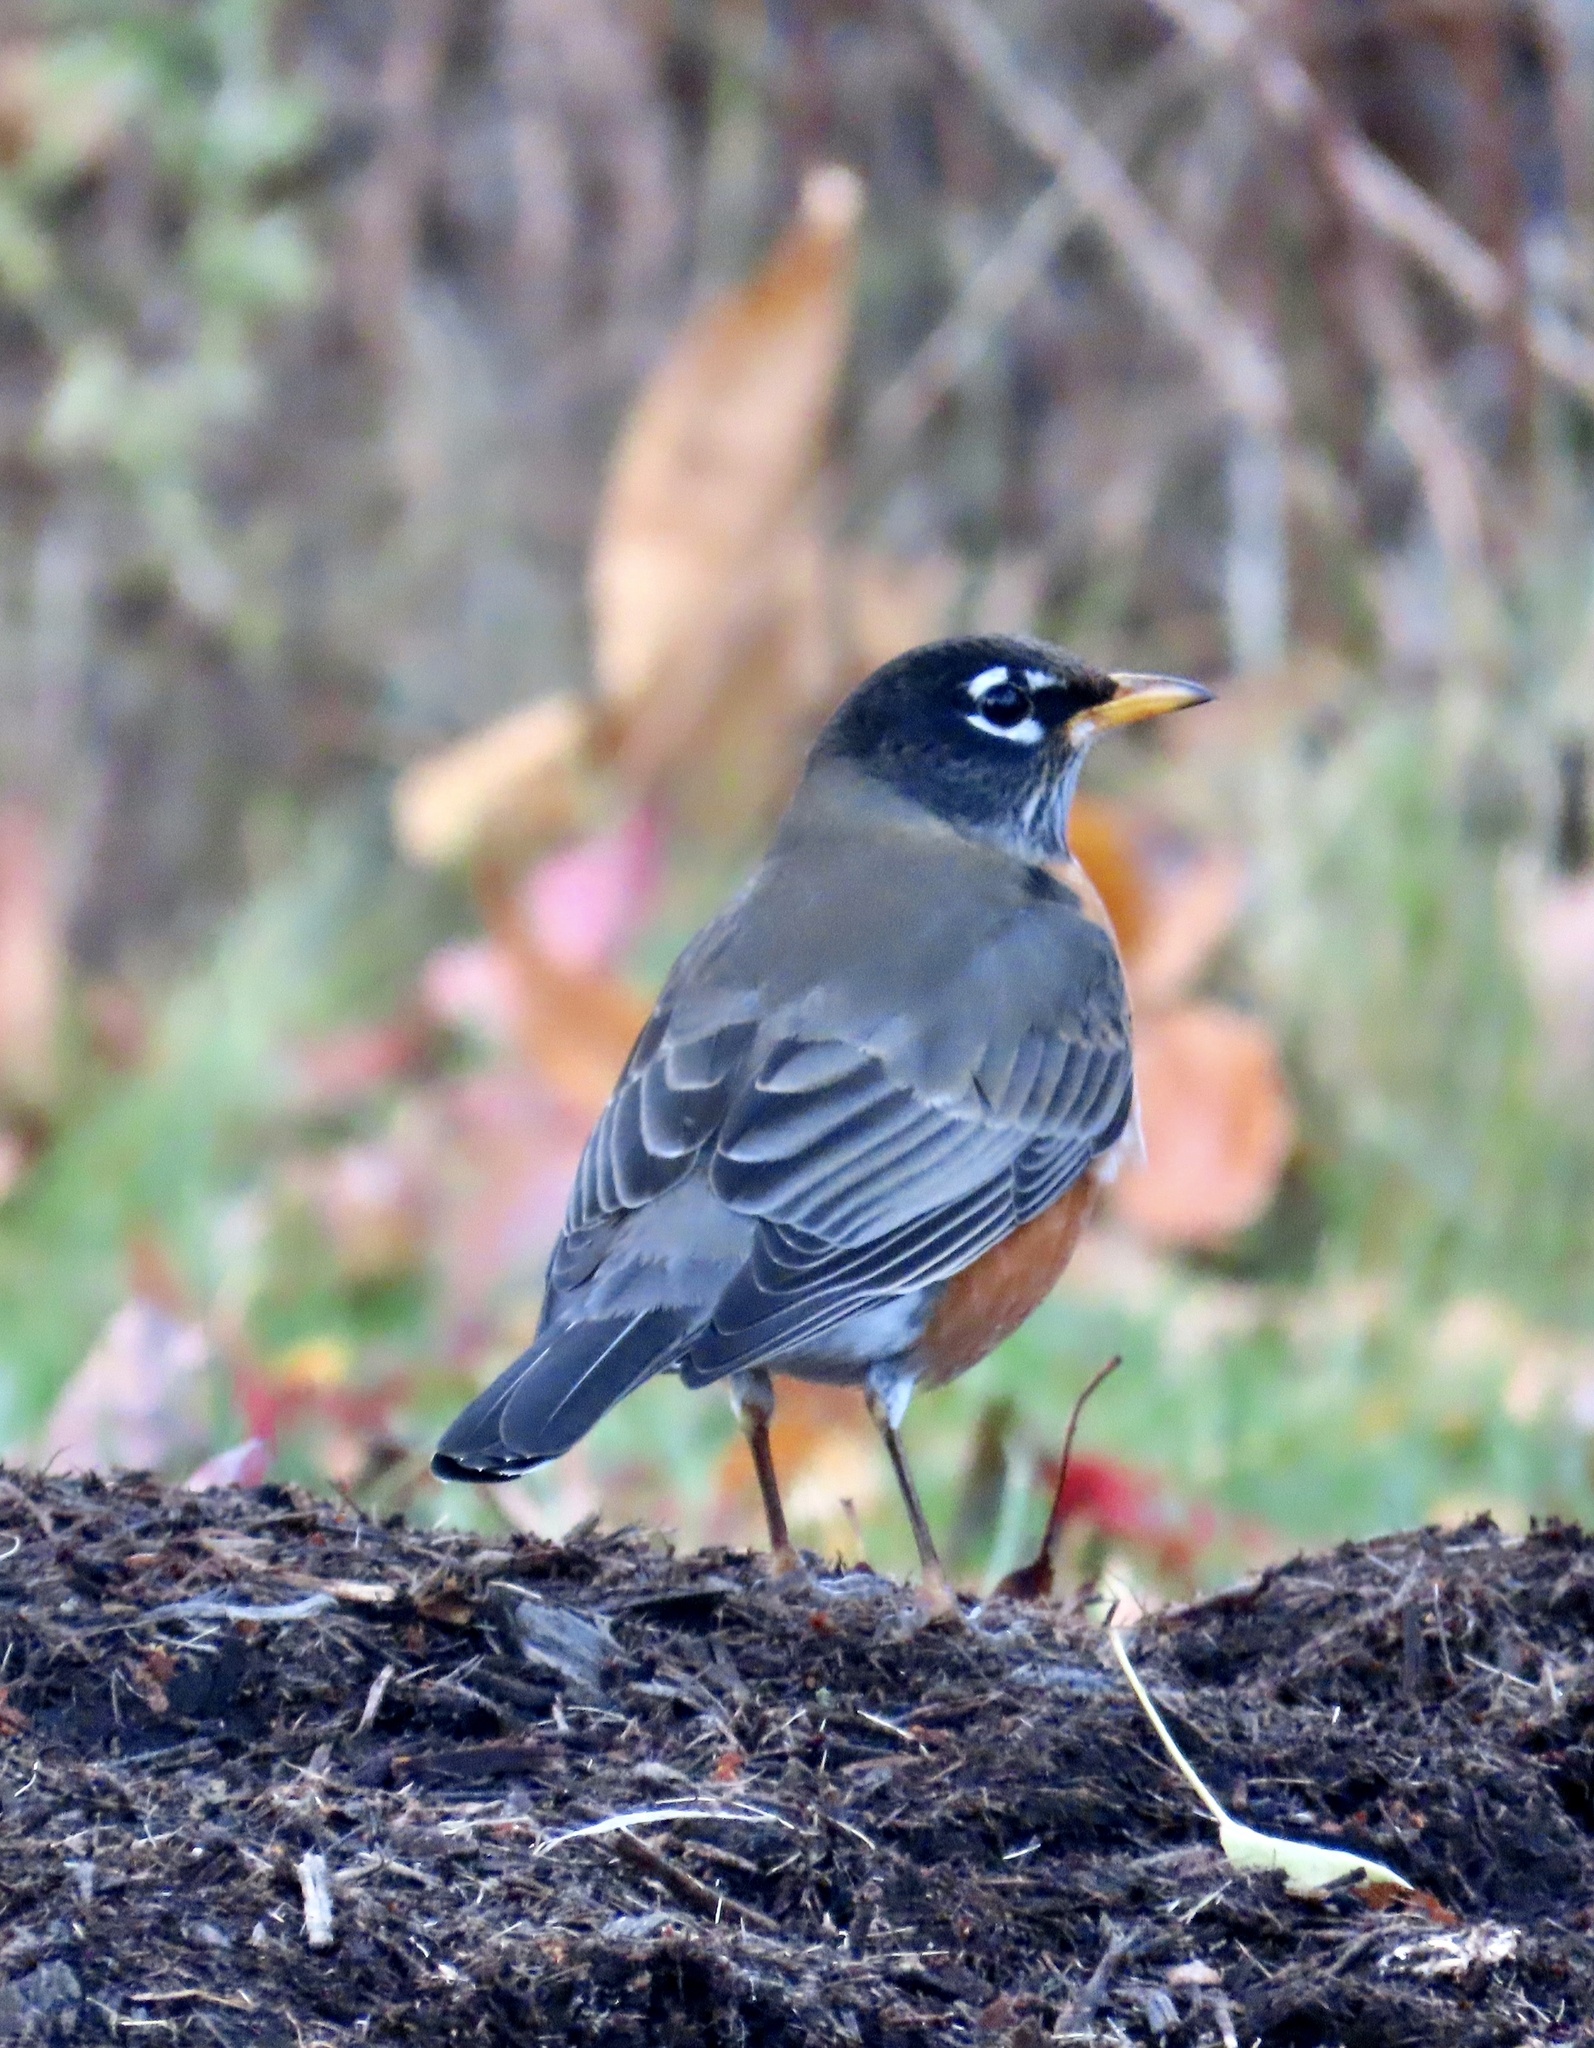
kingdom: Animalia
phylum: Chordata
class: Aves
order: Passeriformes
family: Turdidae
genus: Turdus
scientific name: Turdus migratorius
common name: American robin
